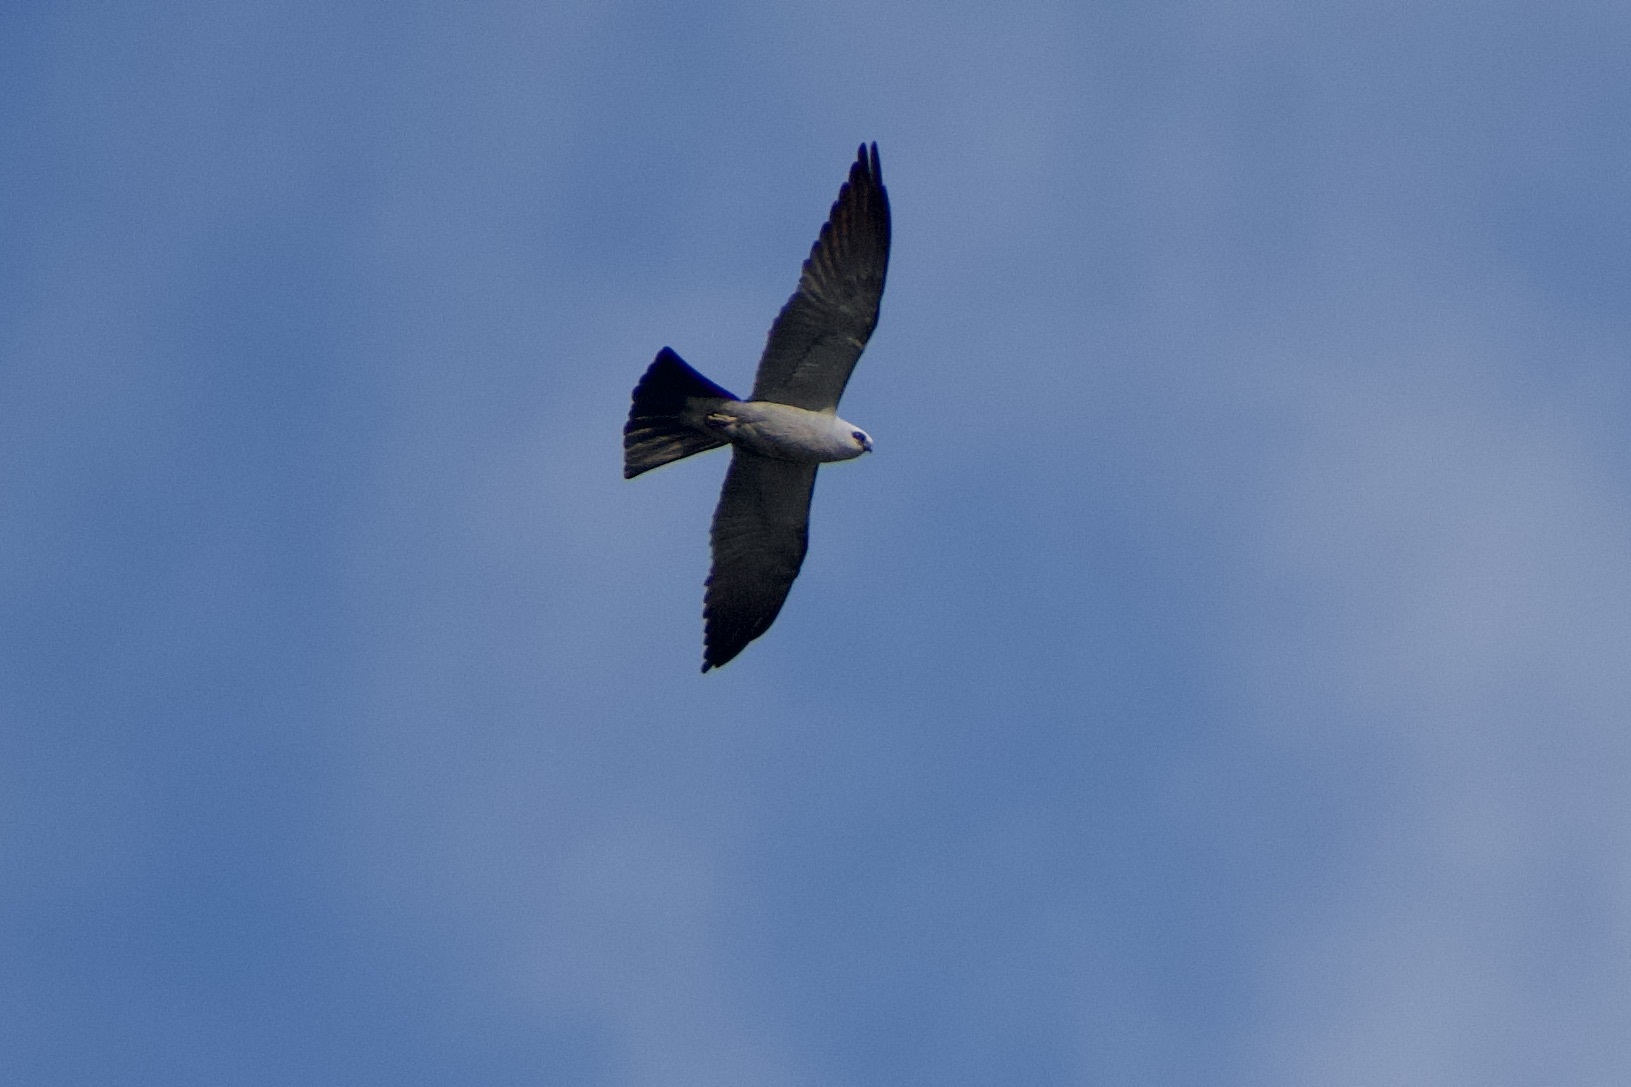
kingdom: Animalia
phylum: Chordata
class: Aves
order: Accipitriformes
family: Accipitridae
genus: Ictinia
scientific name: Ictinia mississippiensis
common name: Mississippi kite
